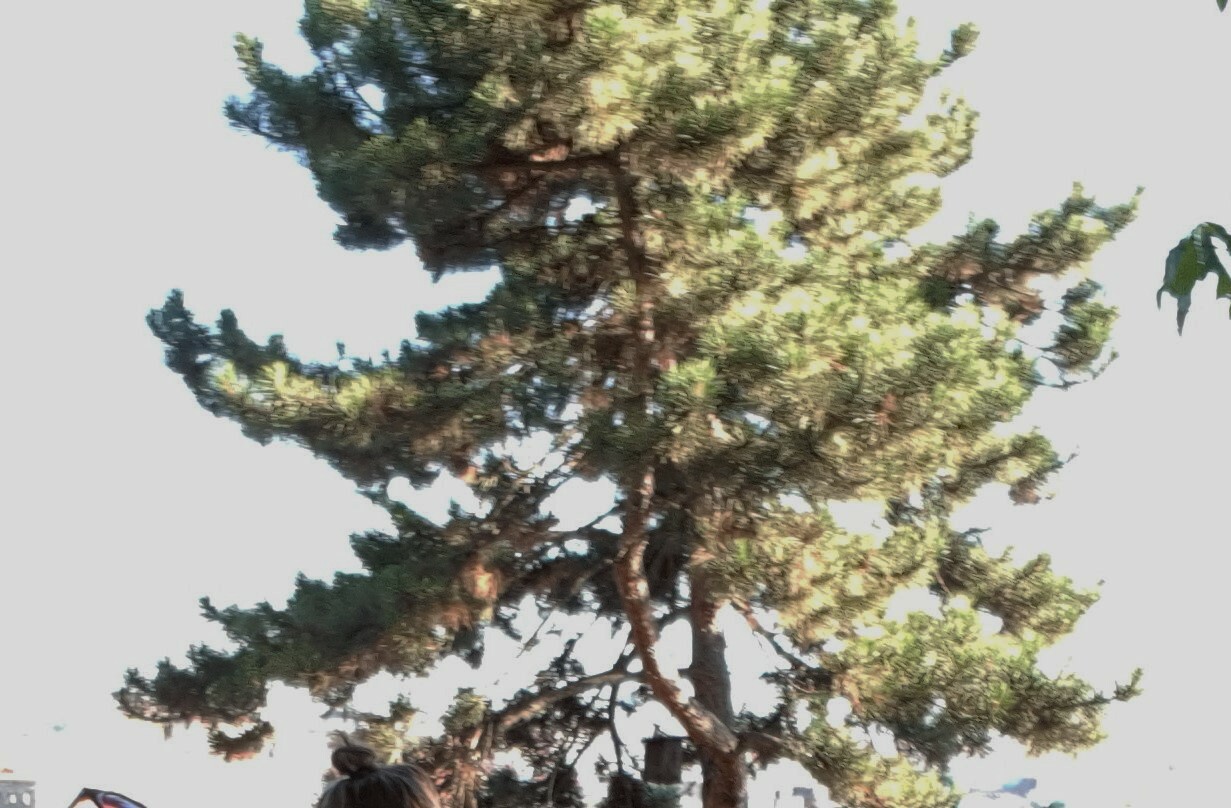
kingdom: Plantae
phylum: Tracheophyta
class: Pinopsida
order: Pinales
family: Pinaceae
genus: Pinus
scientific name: Pinus sylvestris
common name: Scots pine
